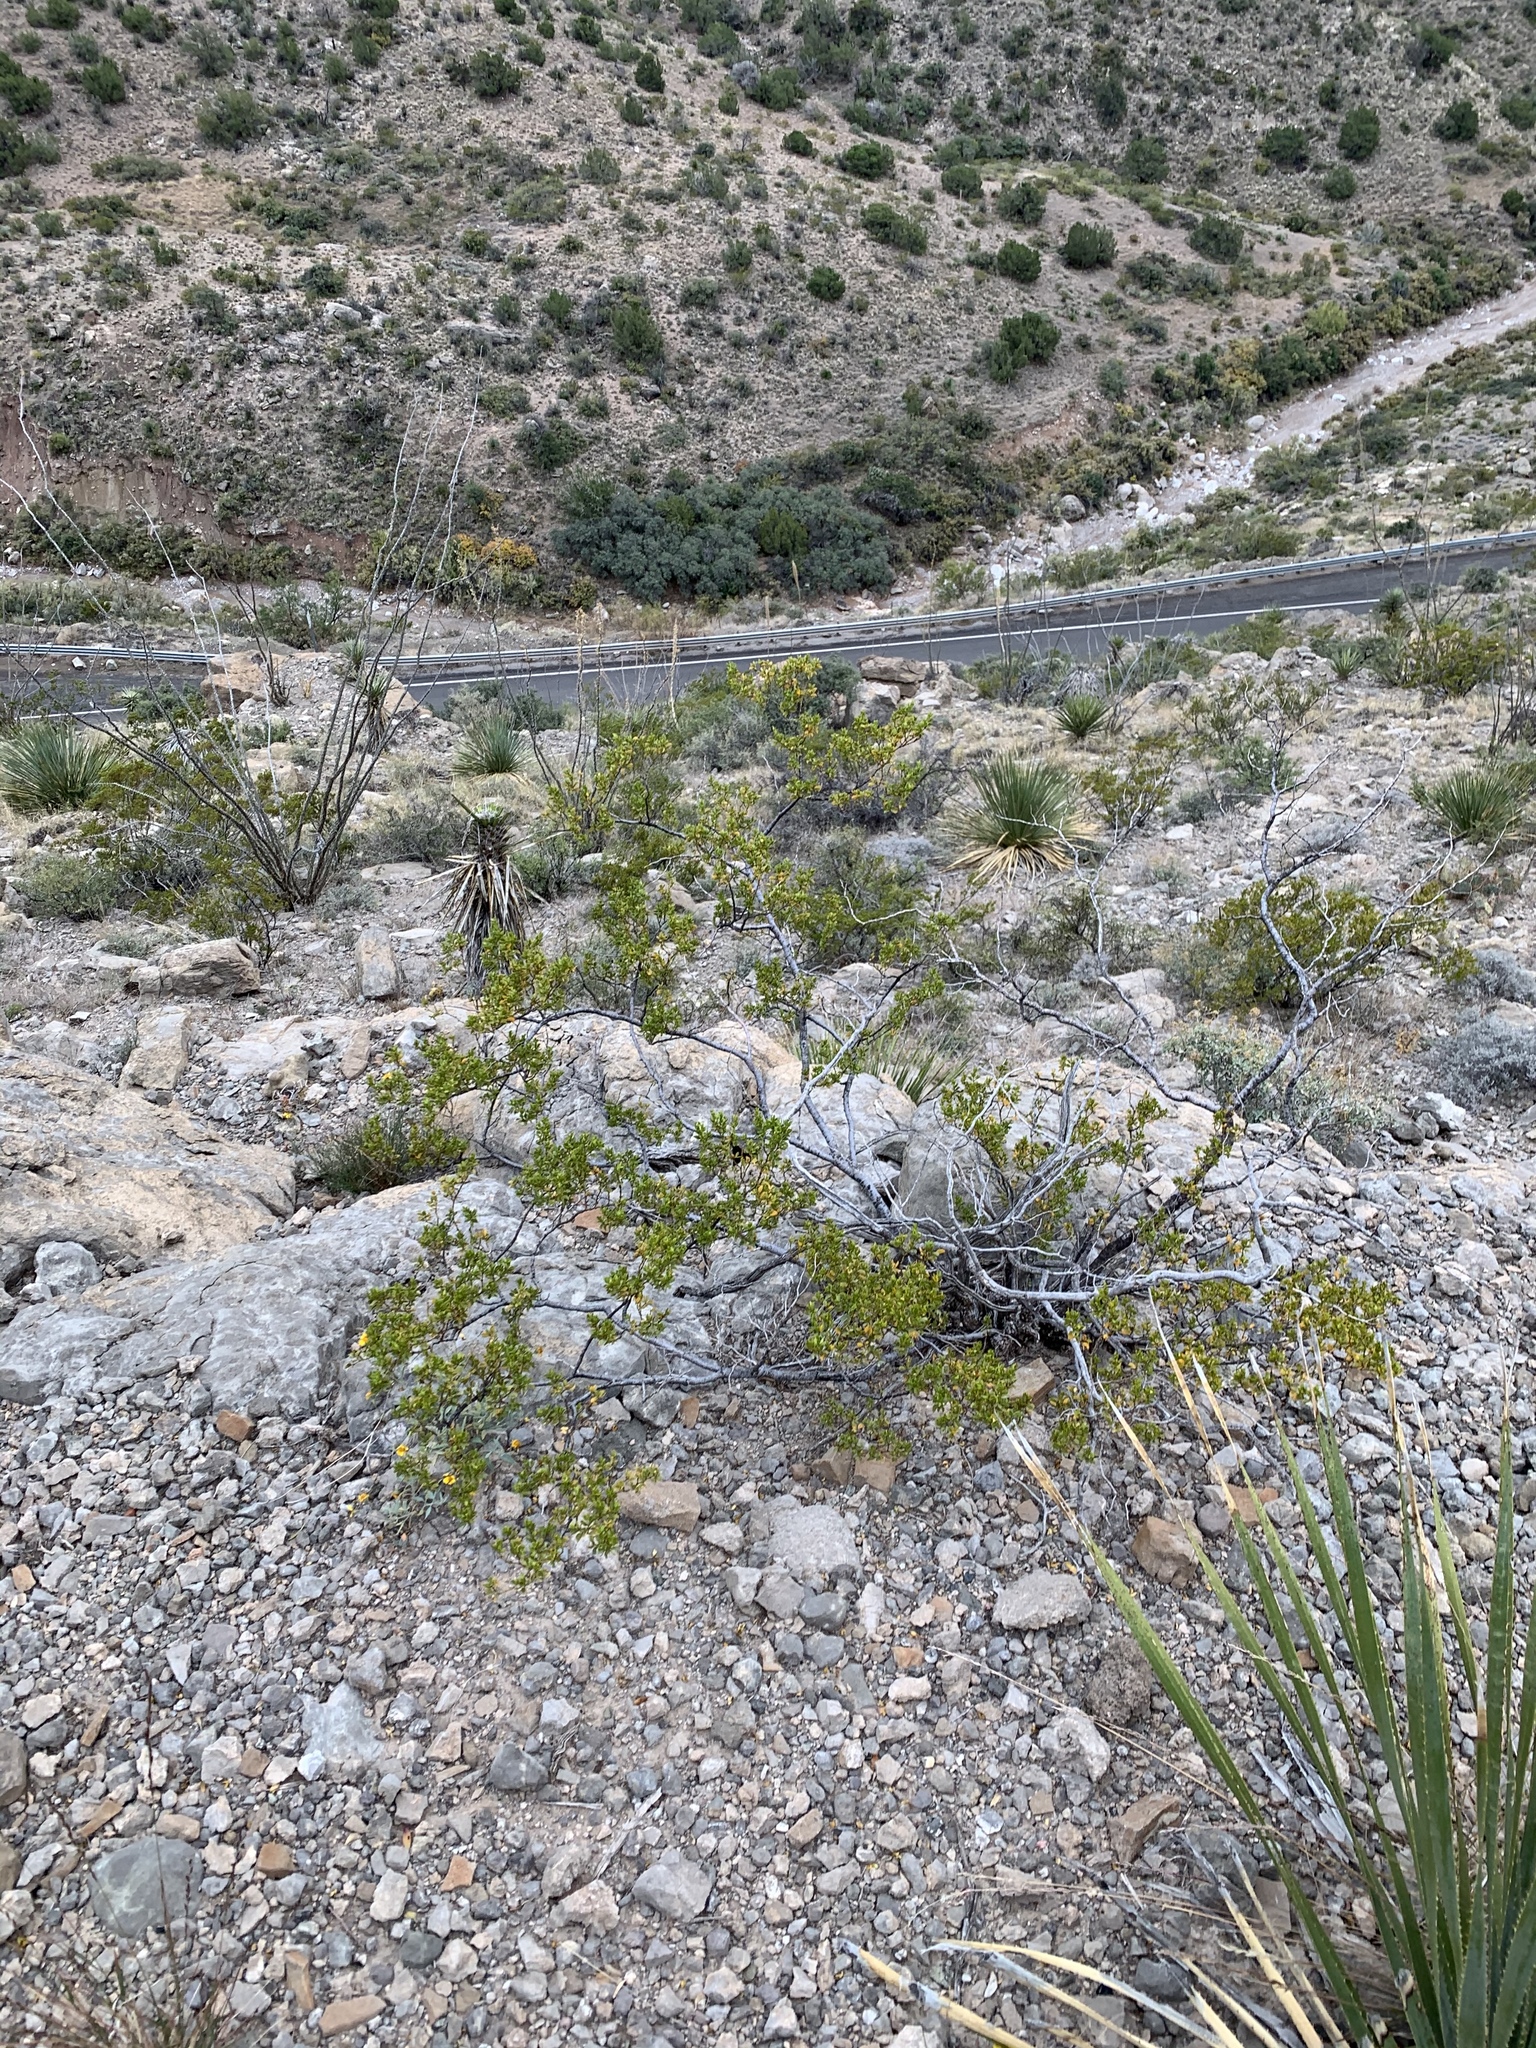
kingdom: Plantae
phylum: Tracheophyta
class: Magnoliopsida
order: Zygophyllales
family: Zygophyllaceae
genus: Larrea
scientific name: Larrea tridentata
